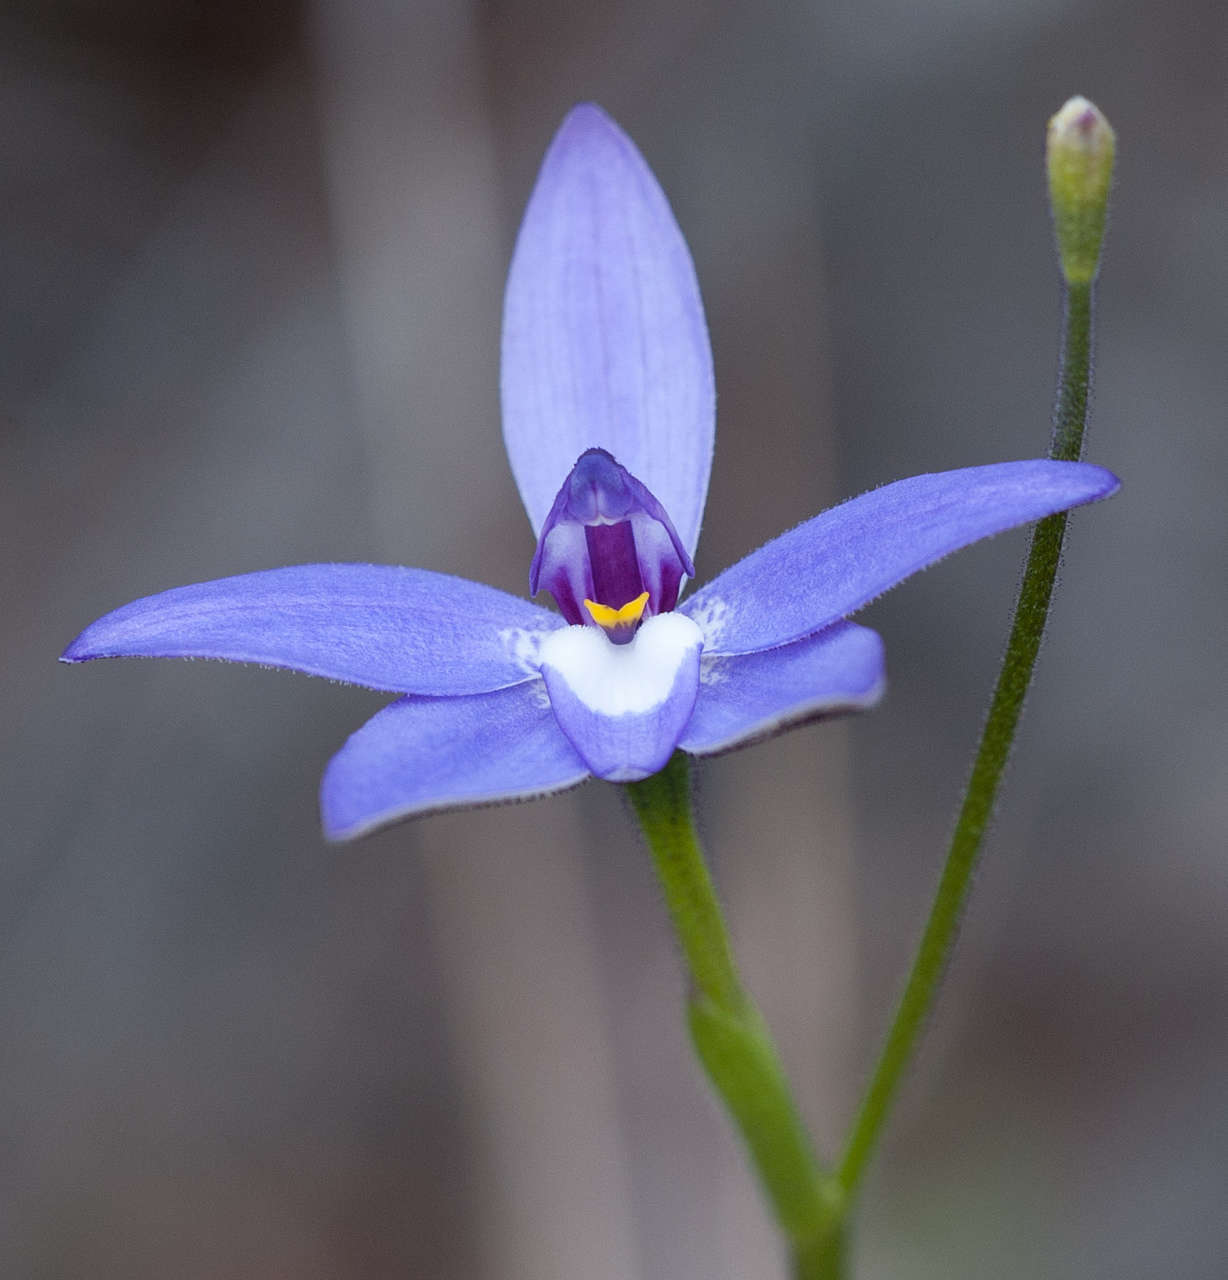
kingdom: Plantae
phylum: Tracheophyta
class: Liliopsida
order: Asparagales
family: Orchidaceae
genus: Caladenia
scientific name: Caladenia major
